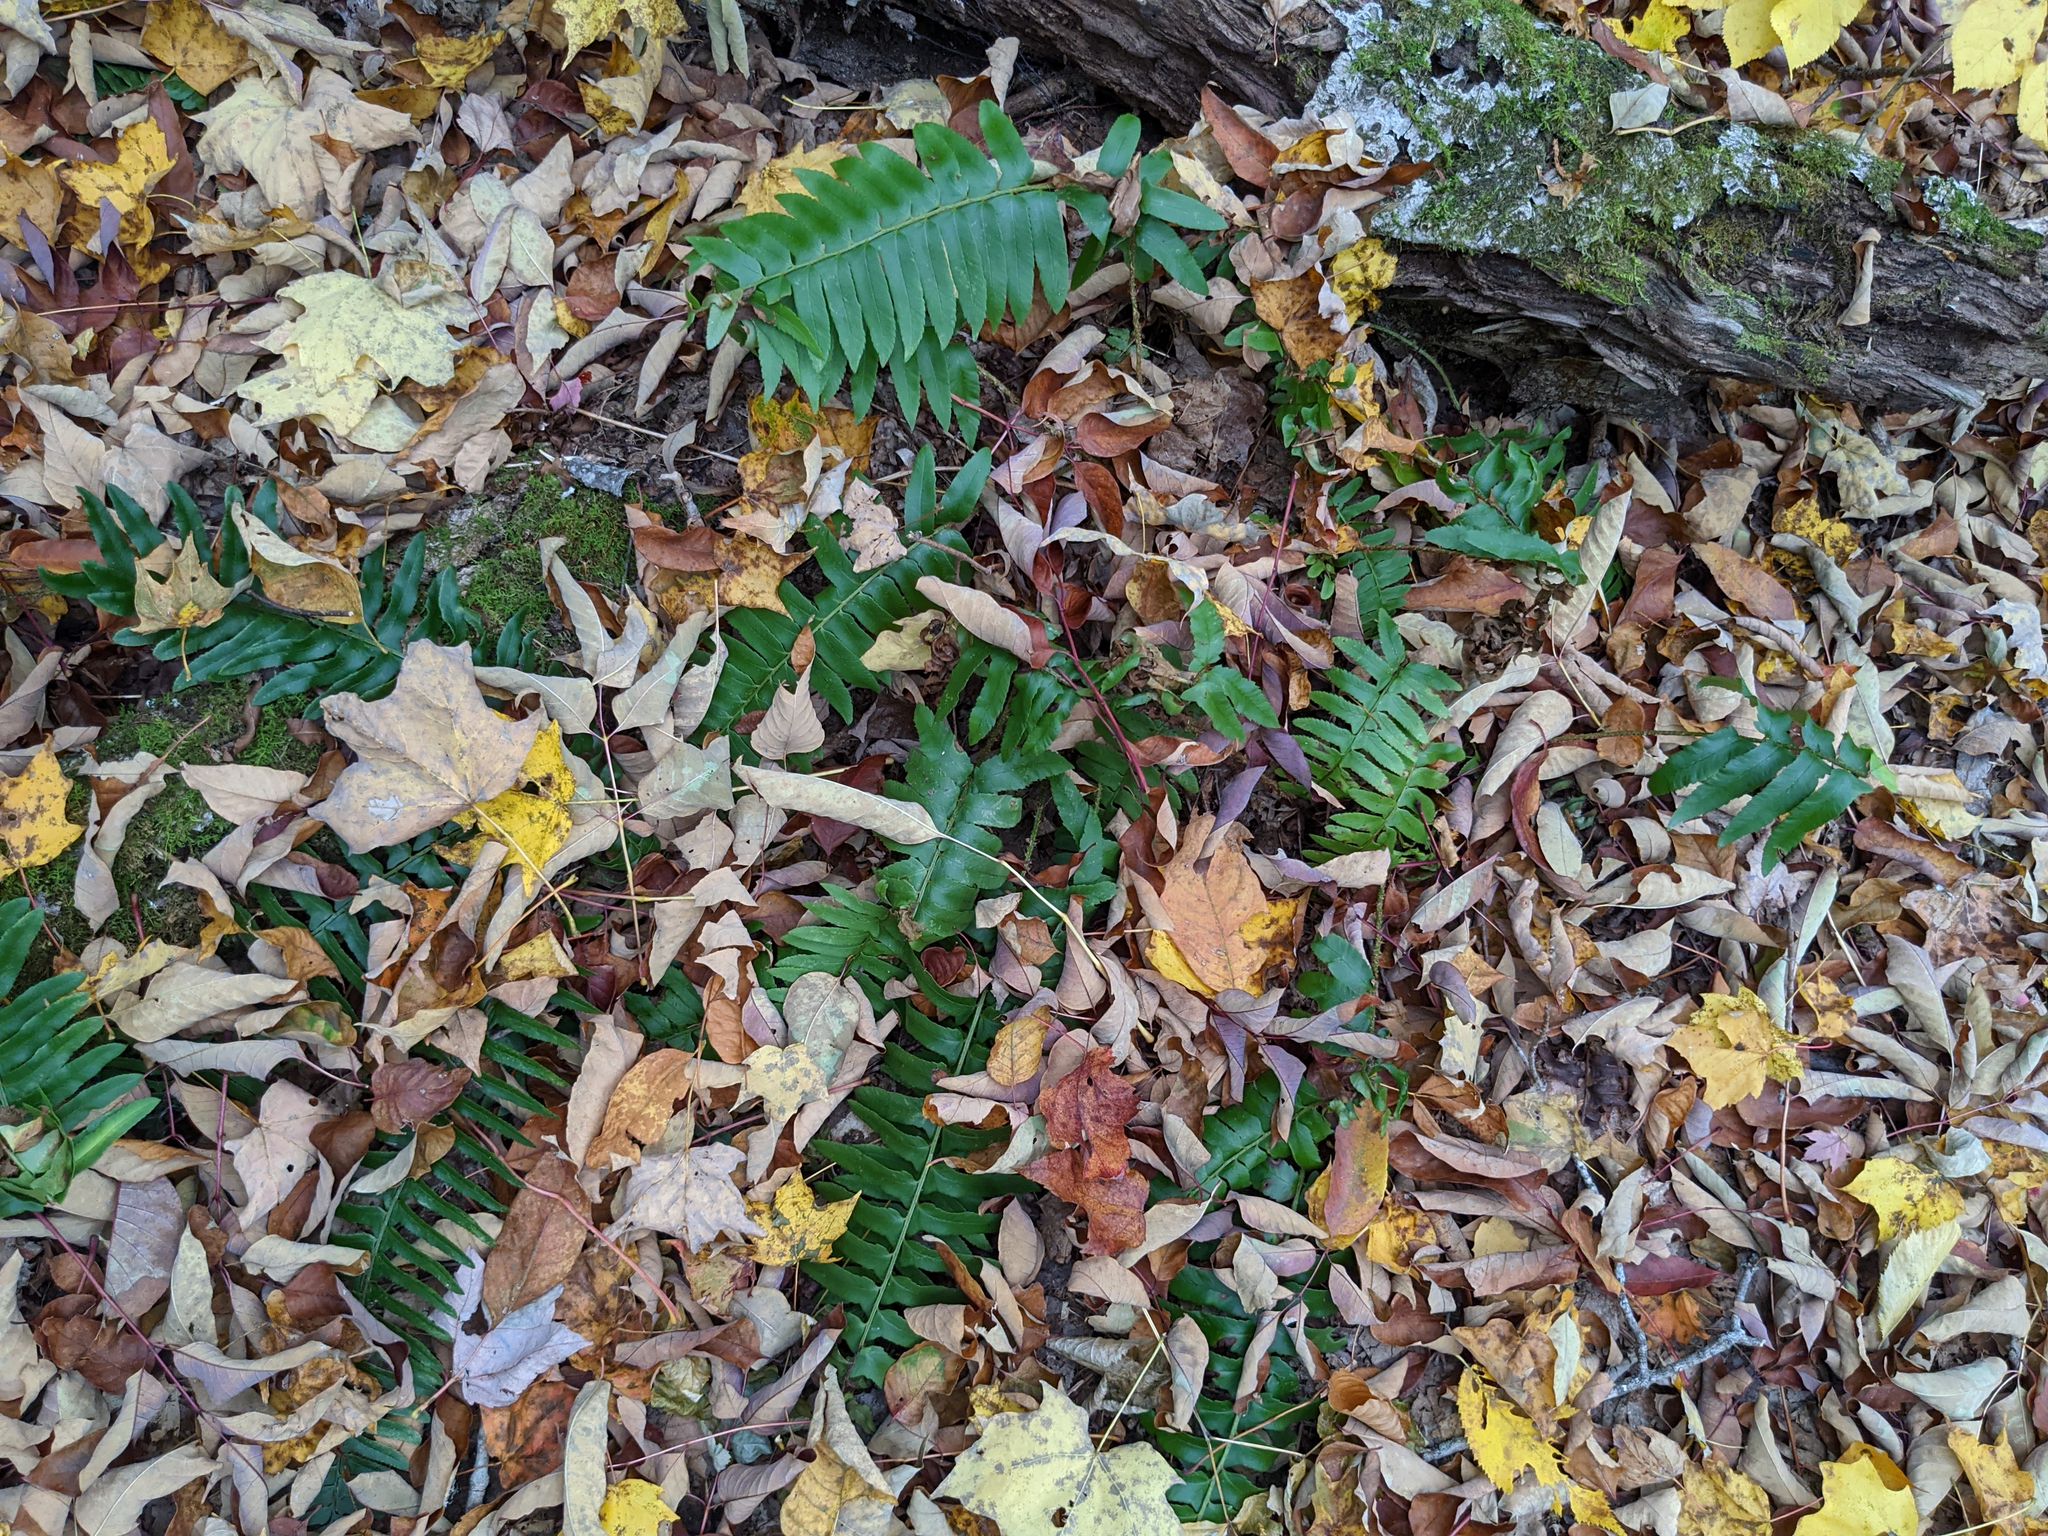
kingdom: Plantae
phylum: Tracheophyta
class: Polypodiopsida
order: Polypodiales
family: Dryopteridaceae
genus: Polystichum
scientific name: Polystichum acrostichoides
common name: Christmas fern
